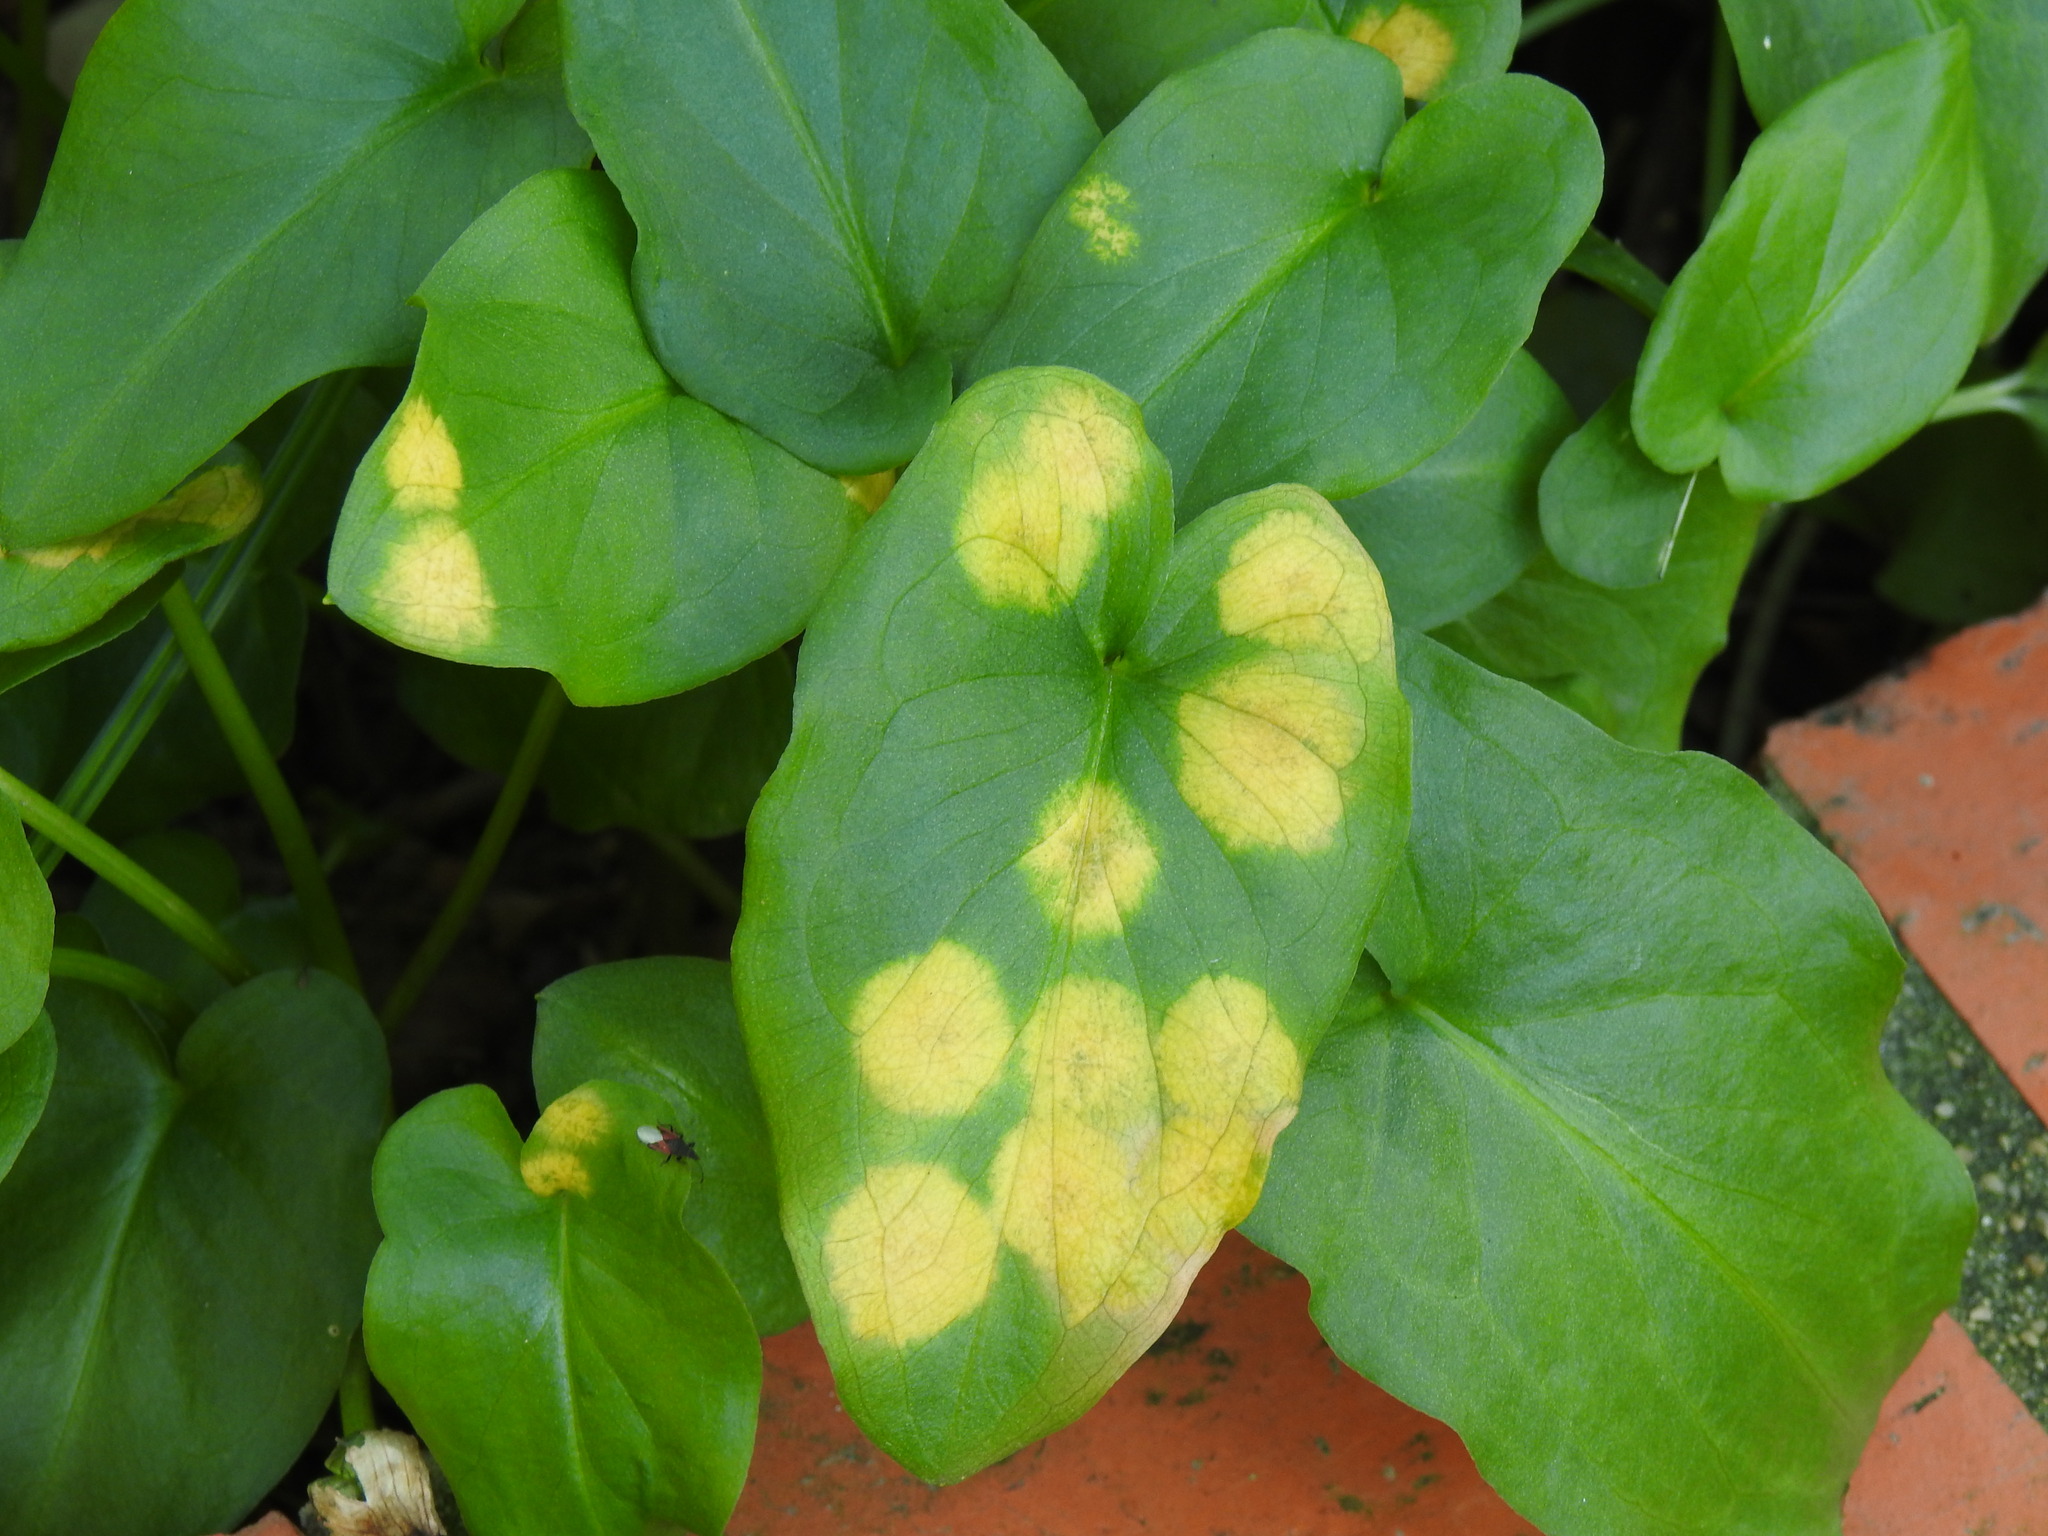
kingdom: Chromista
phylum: Ochrophyta
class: Xanthophyceae
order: Phyllosiphonales
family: Phyllosiphonaceae
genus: Phyllosiphon
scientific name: Phyllosiphon arisari
